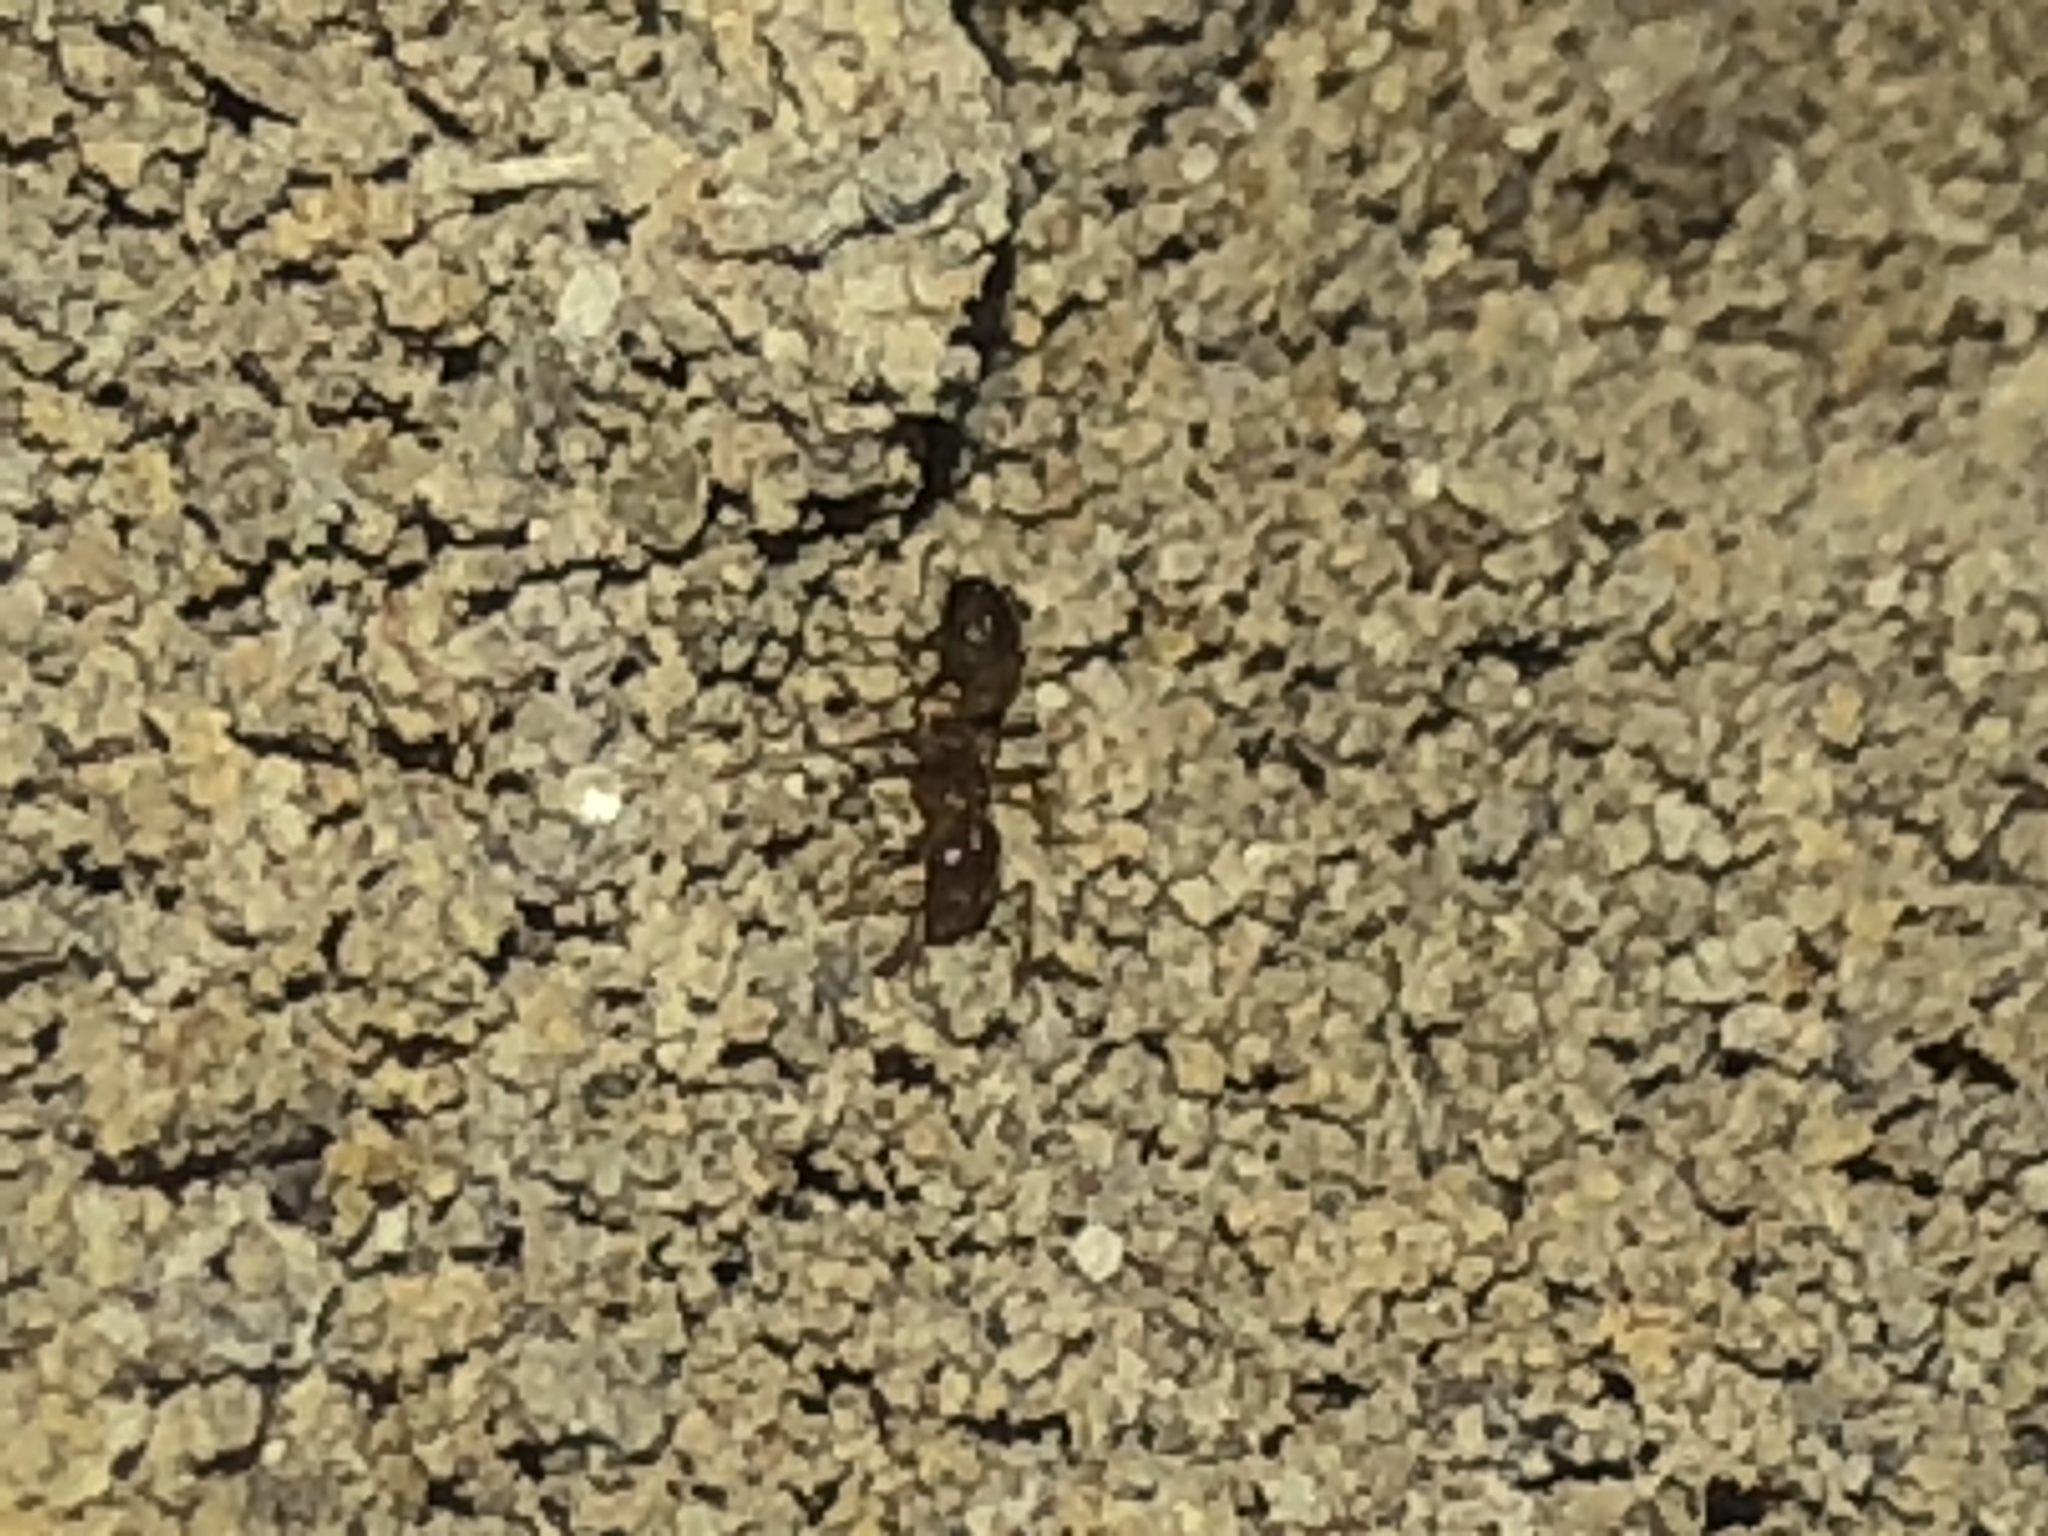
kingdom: Animalia
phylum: Arthropoda
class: Insecta
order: Hymenoptera
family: Formicidae
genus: Solenopsis
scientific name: Solenopsis invicta
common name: Red imported fire ant
